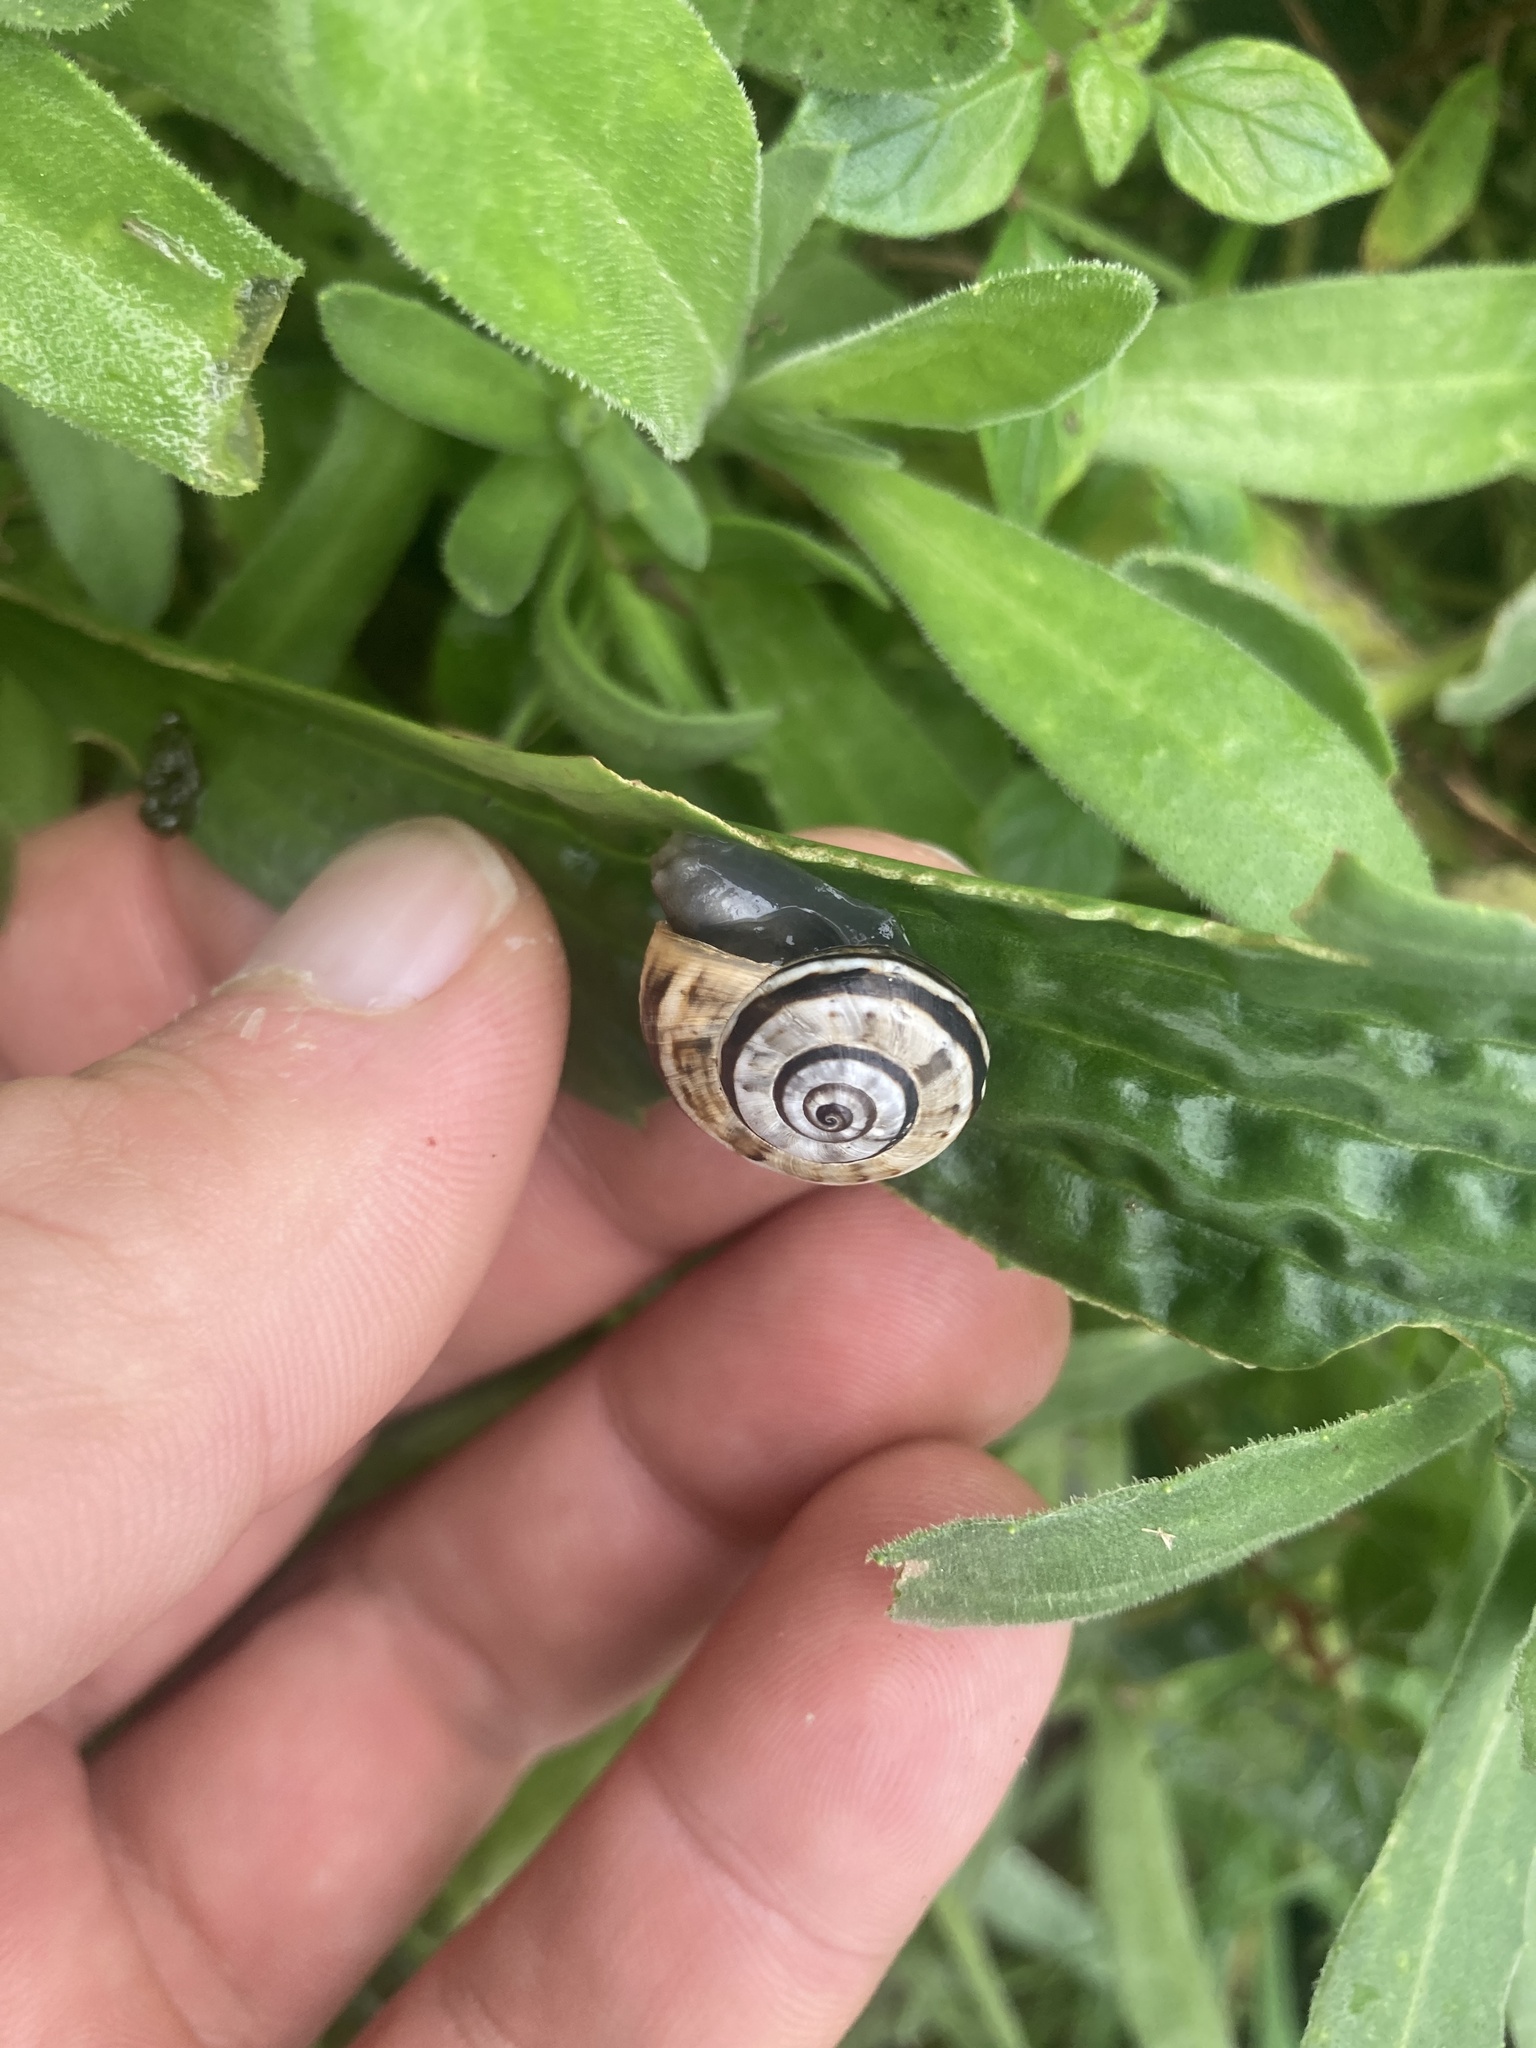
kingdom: Animalia
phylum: Mollusca
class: Gastropoda
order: Stylommatophora
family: Helicidae
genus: Theba
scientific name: Theba pisana
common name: White snail
